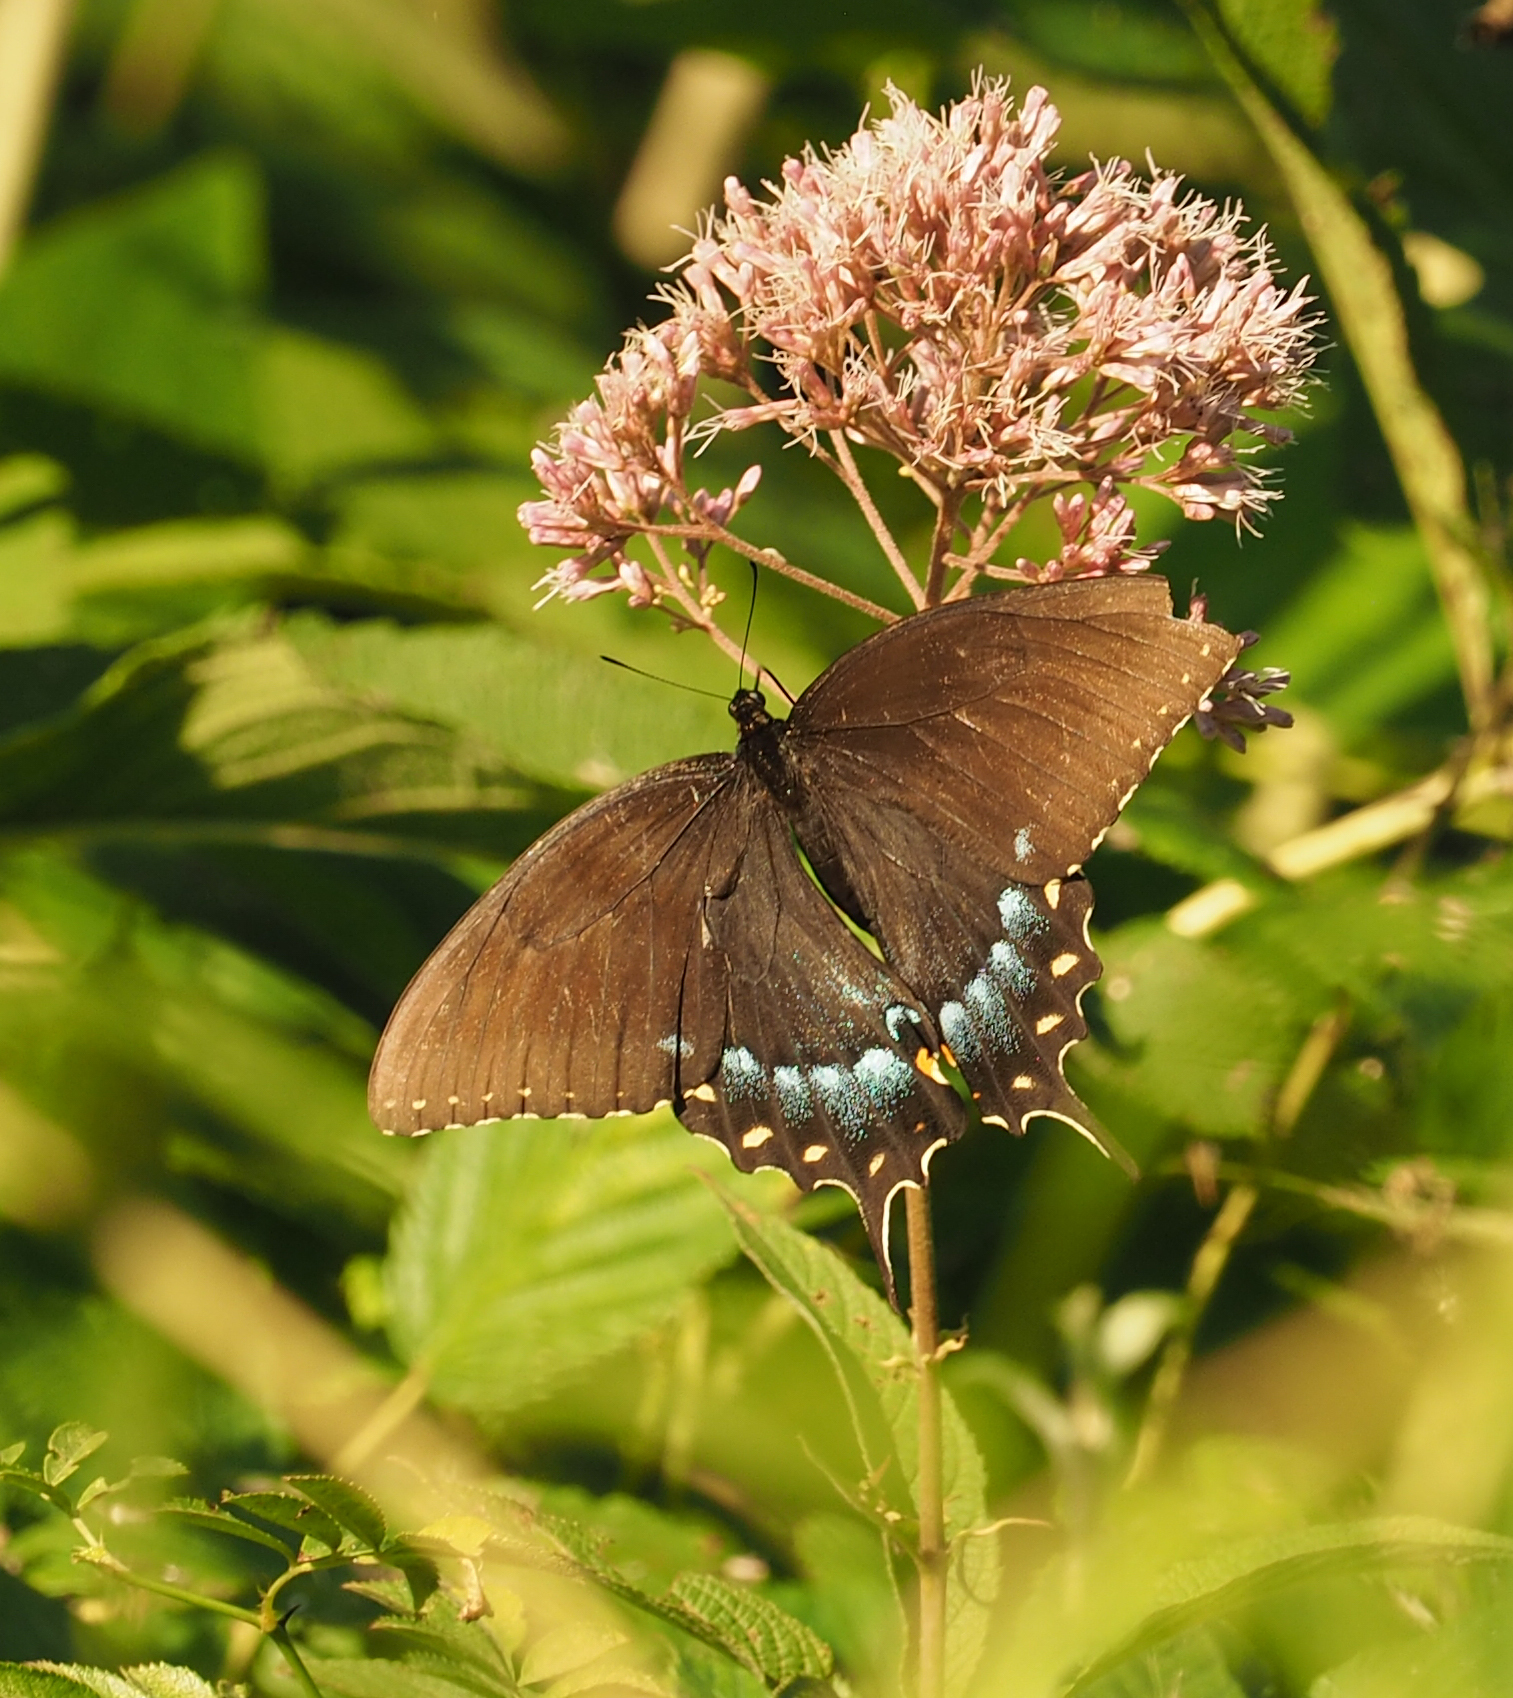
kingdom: Animalia
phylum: Arthropoda
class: Insecta
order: Lepidoptera
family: Papilionidae
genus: Papilio
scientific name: Papilio glaucus
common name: Tiger swallowtail
